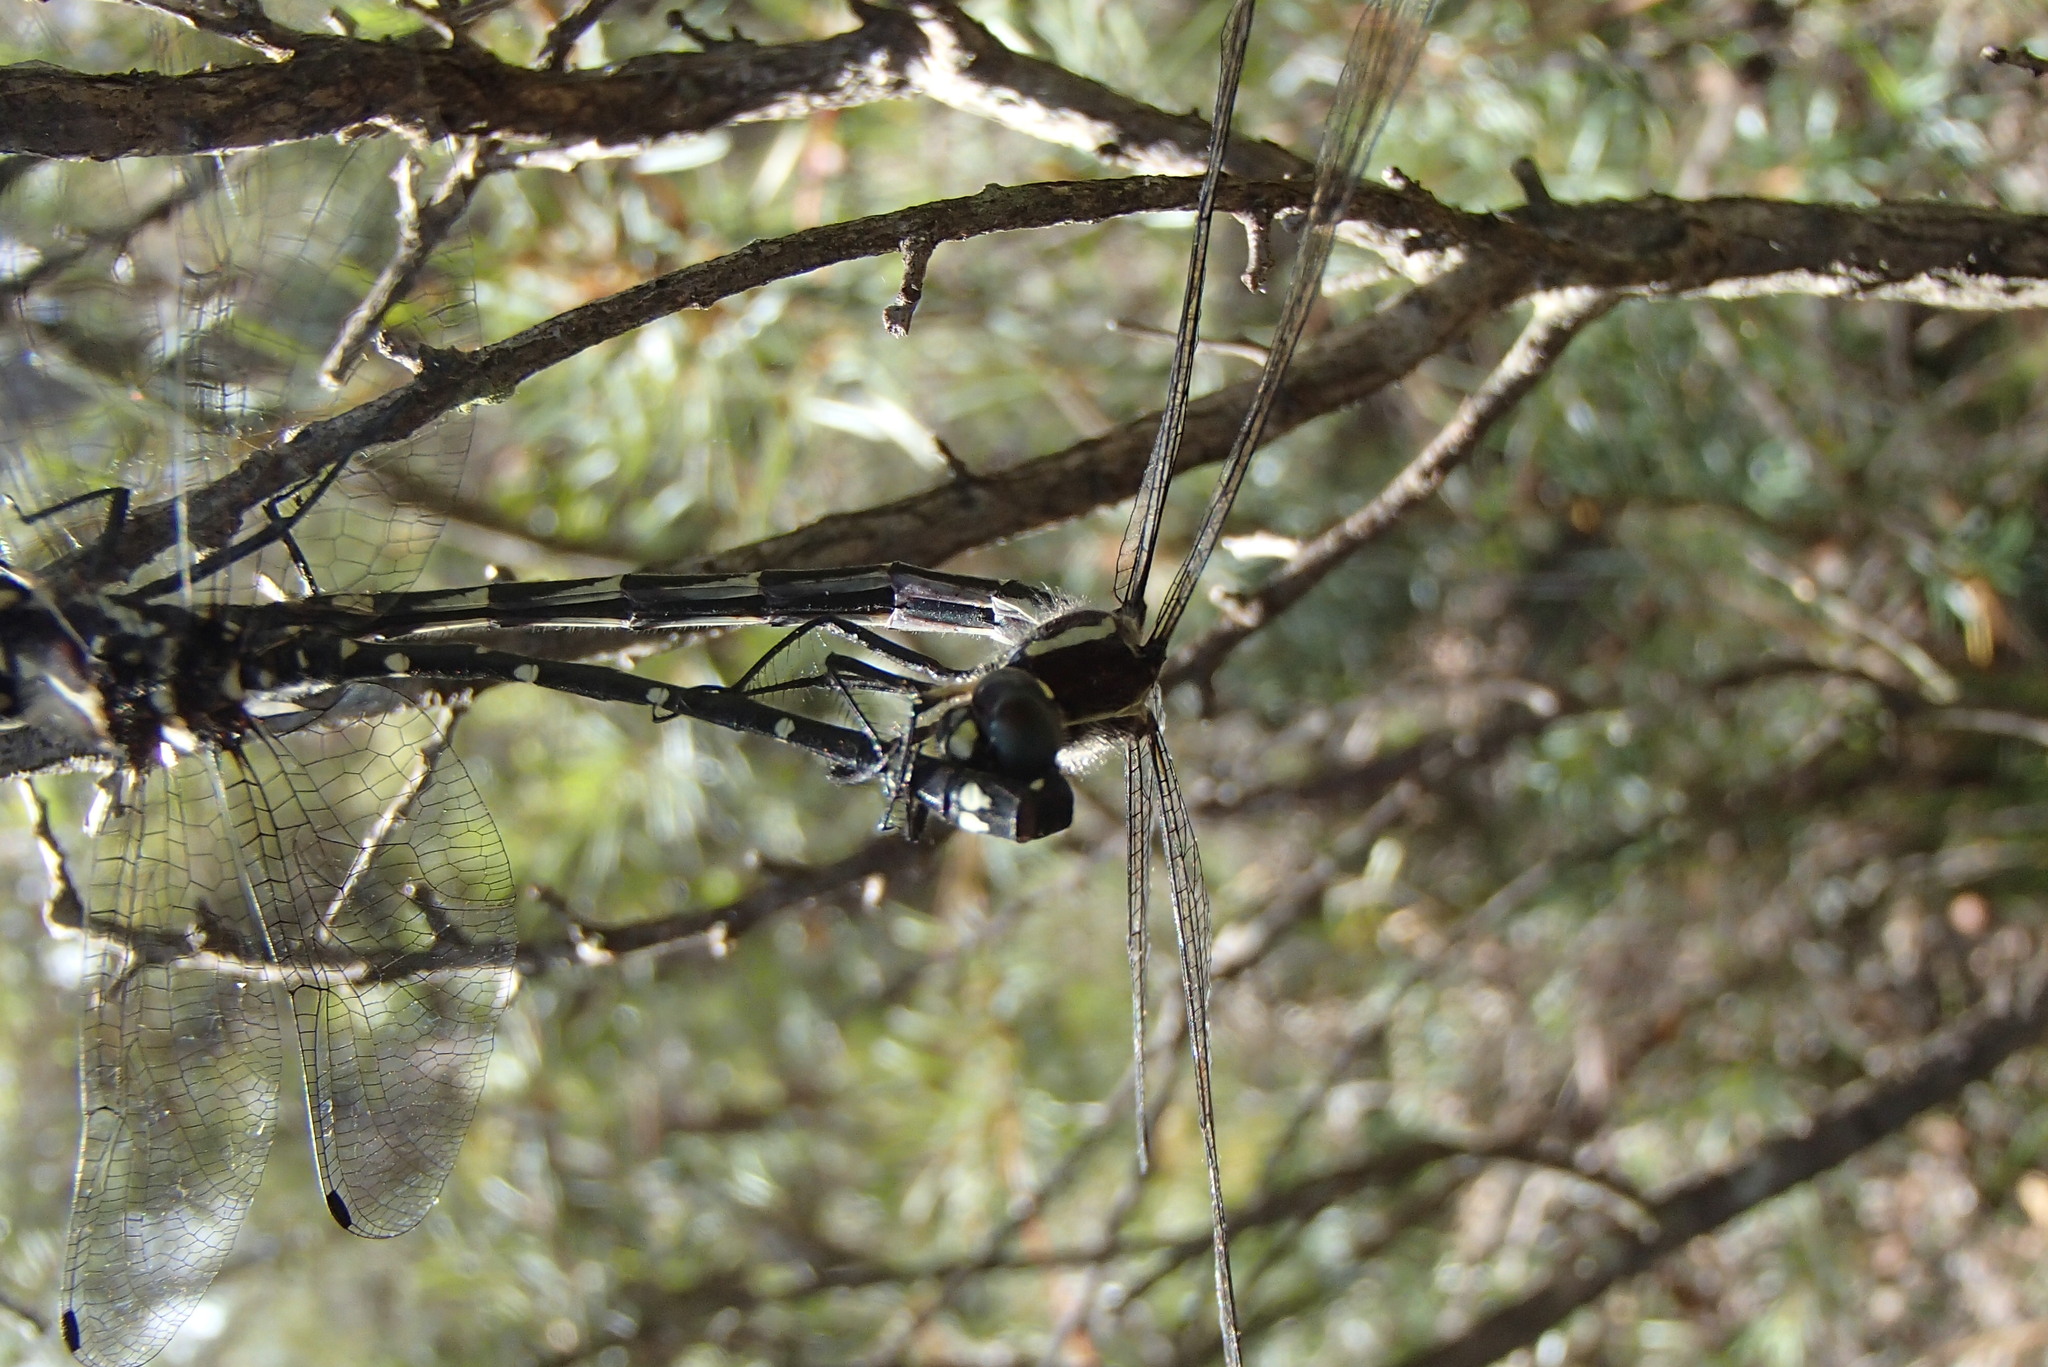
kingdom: Animalia
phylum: Arthropoda
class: Insecta
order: Odonata
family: Synthemistidae
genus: Eusynthemis
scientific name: Eusynthemis tillyardi
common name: Mountain tigertail
